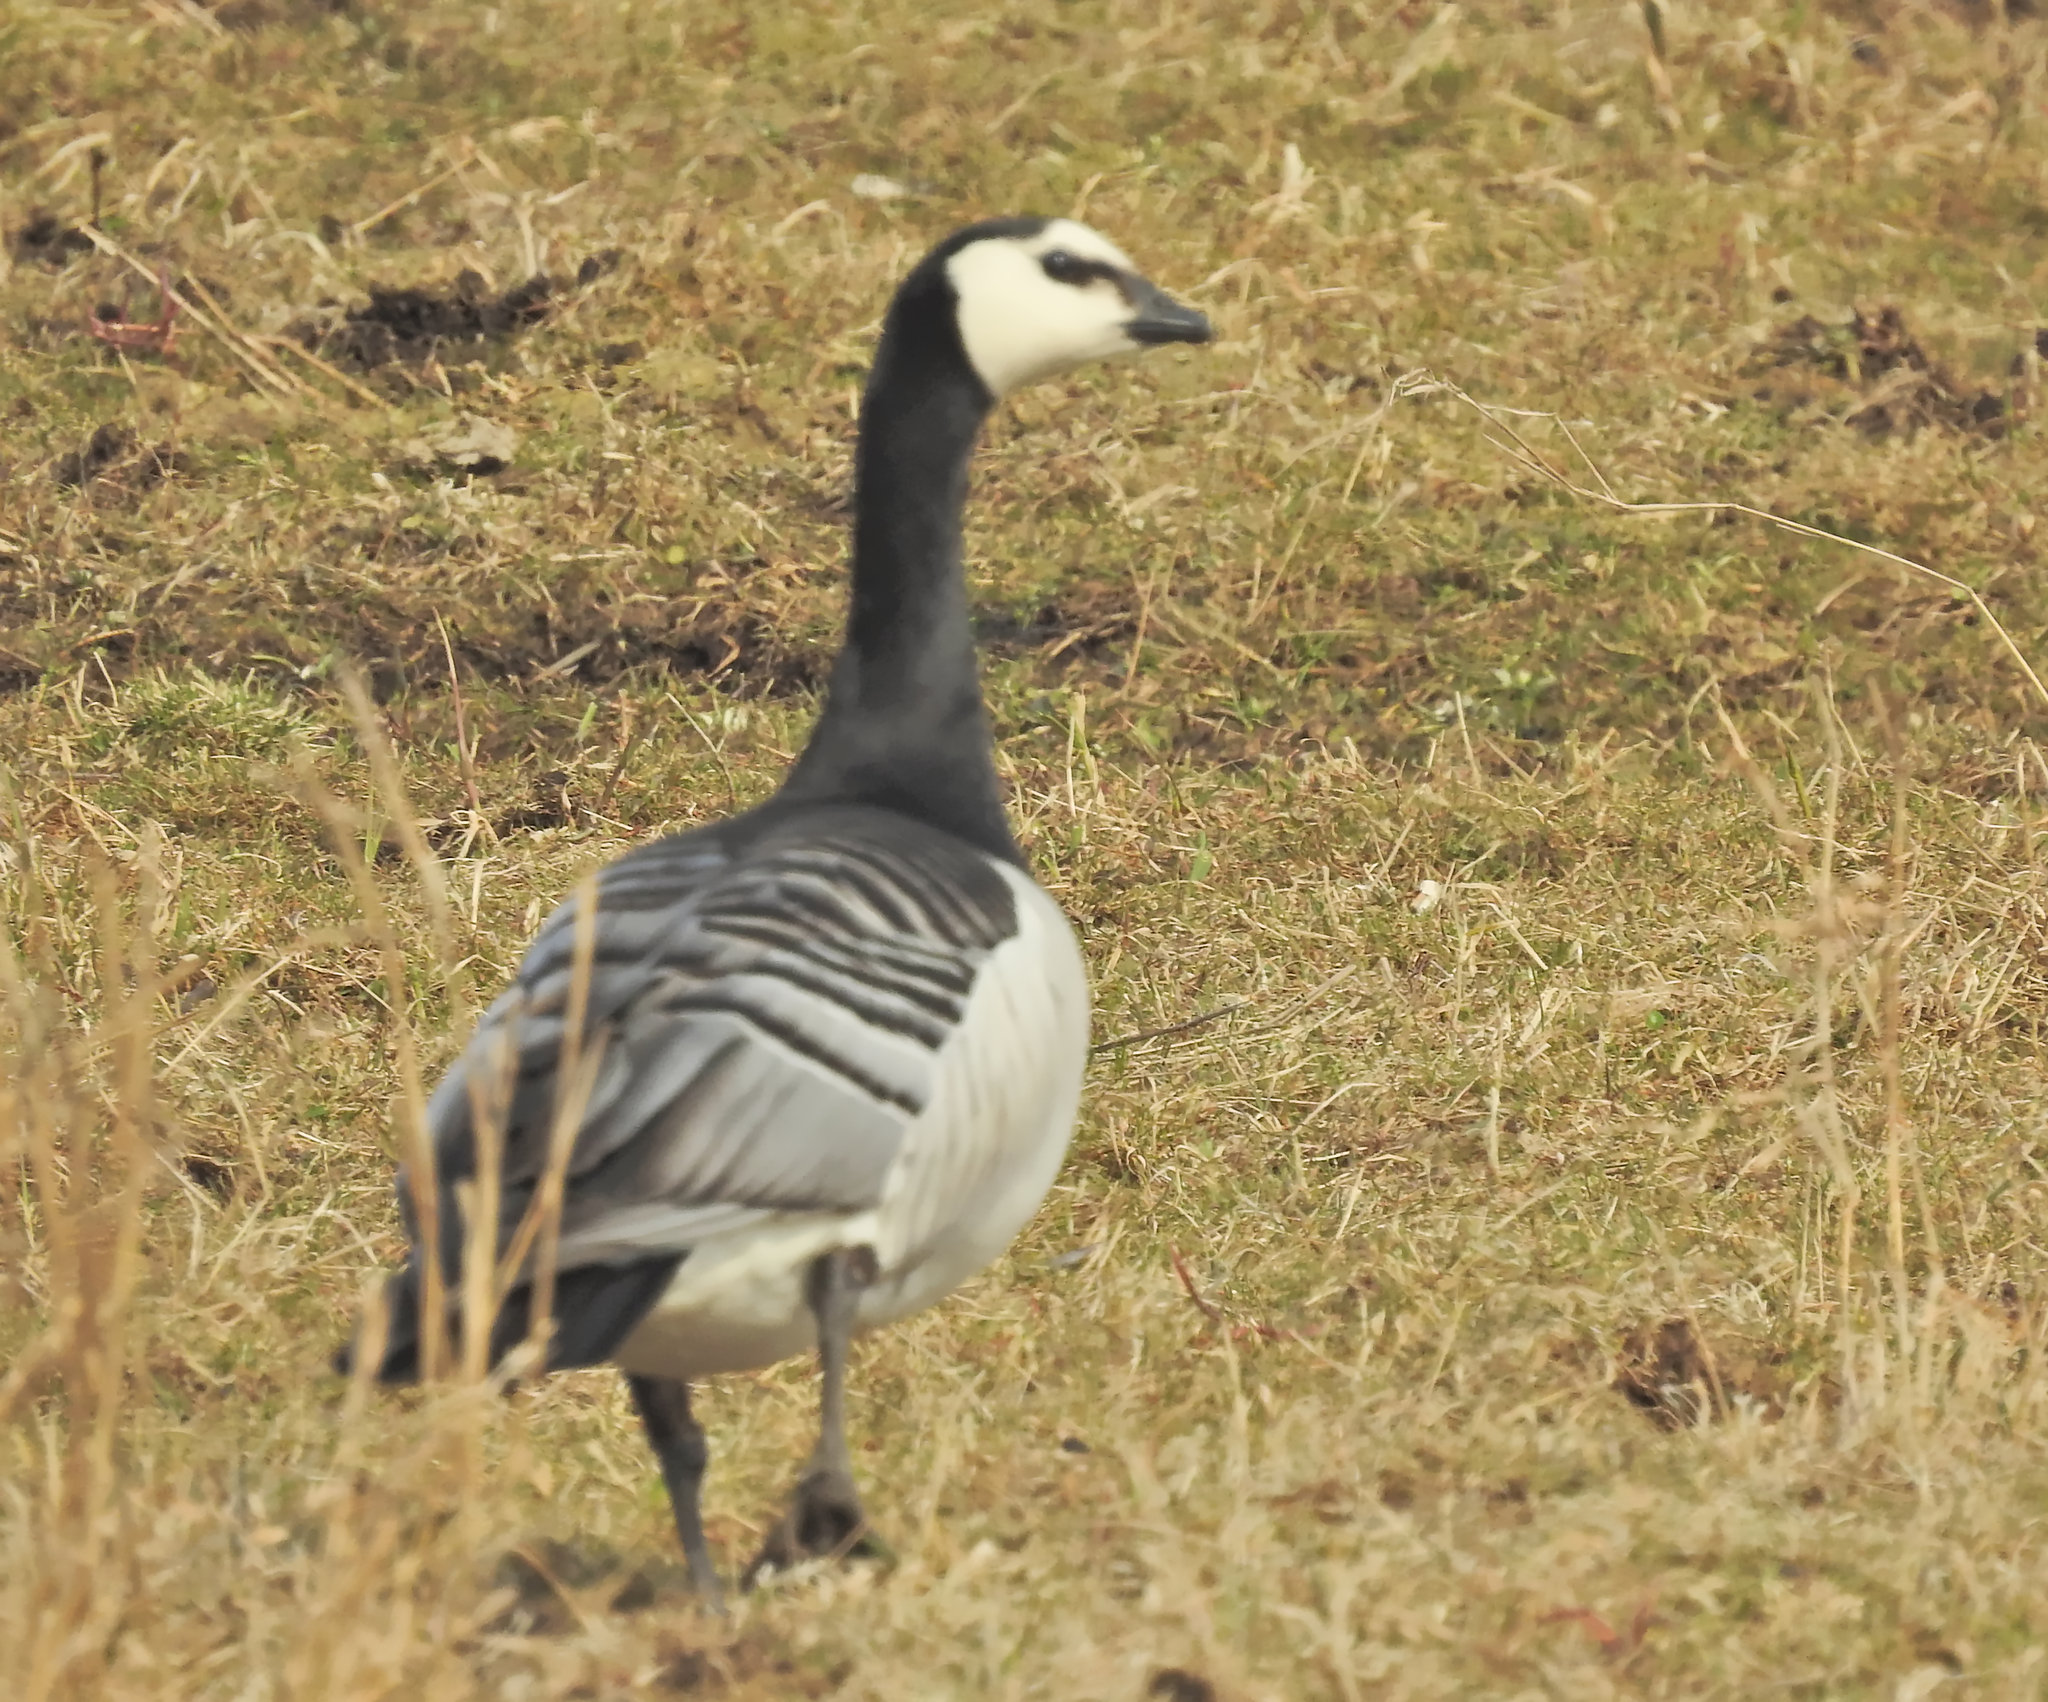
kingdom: Animalia
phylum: Chordata
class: Aves
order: Anseriformes
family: Anatidae
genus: Branta
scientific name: Branta leucopsis
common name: Barnacle goose
